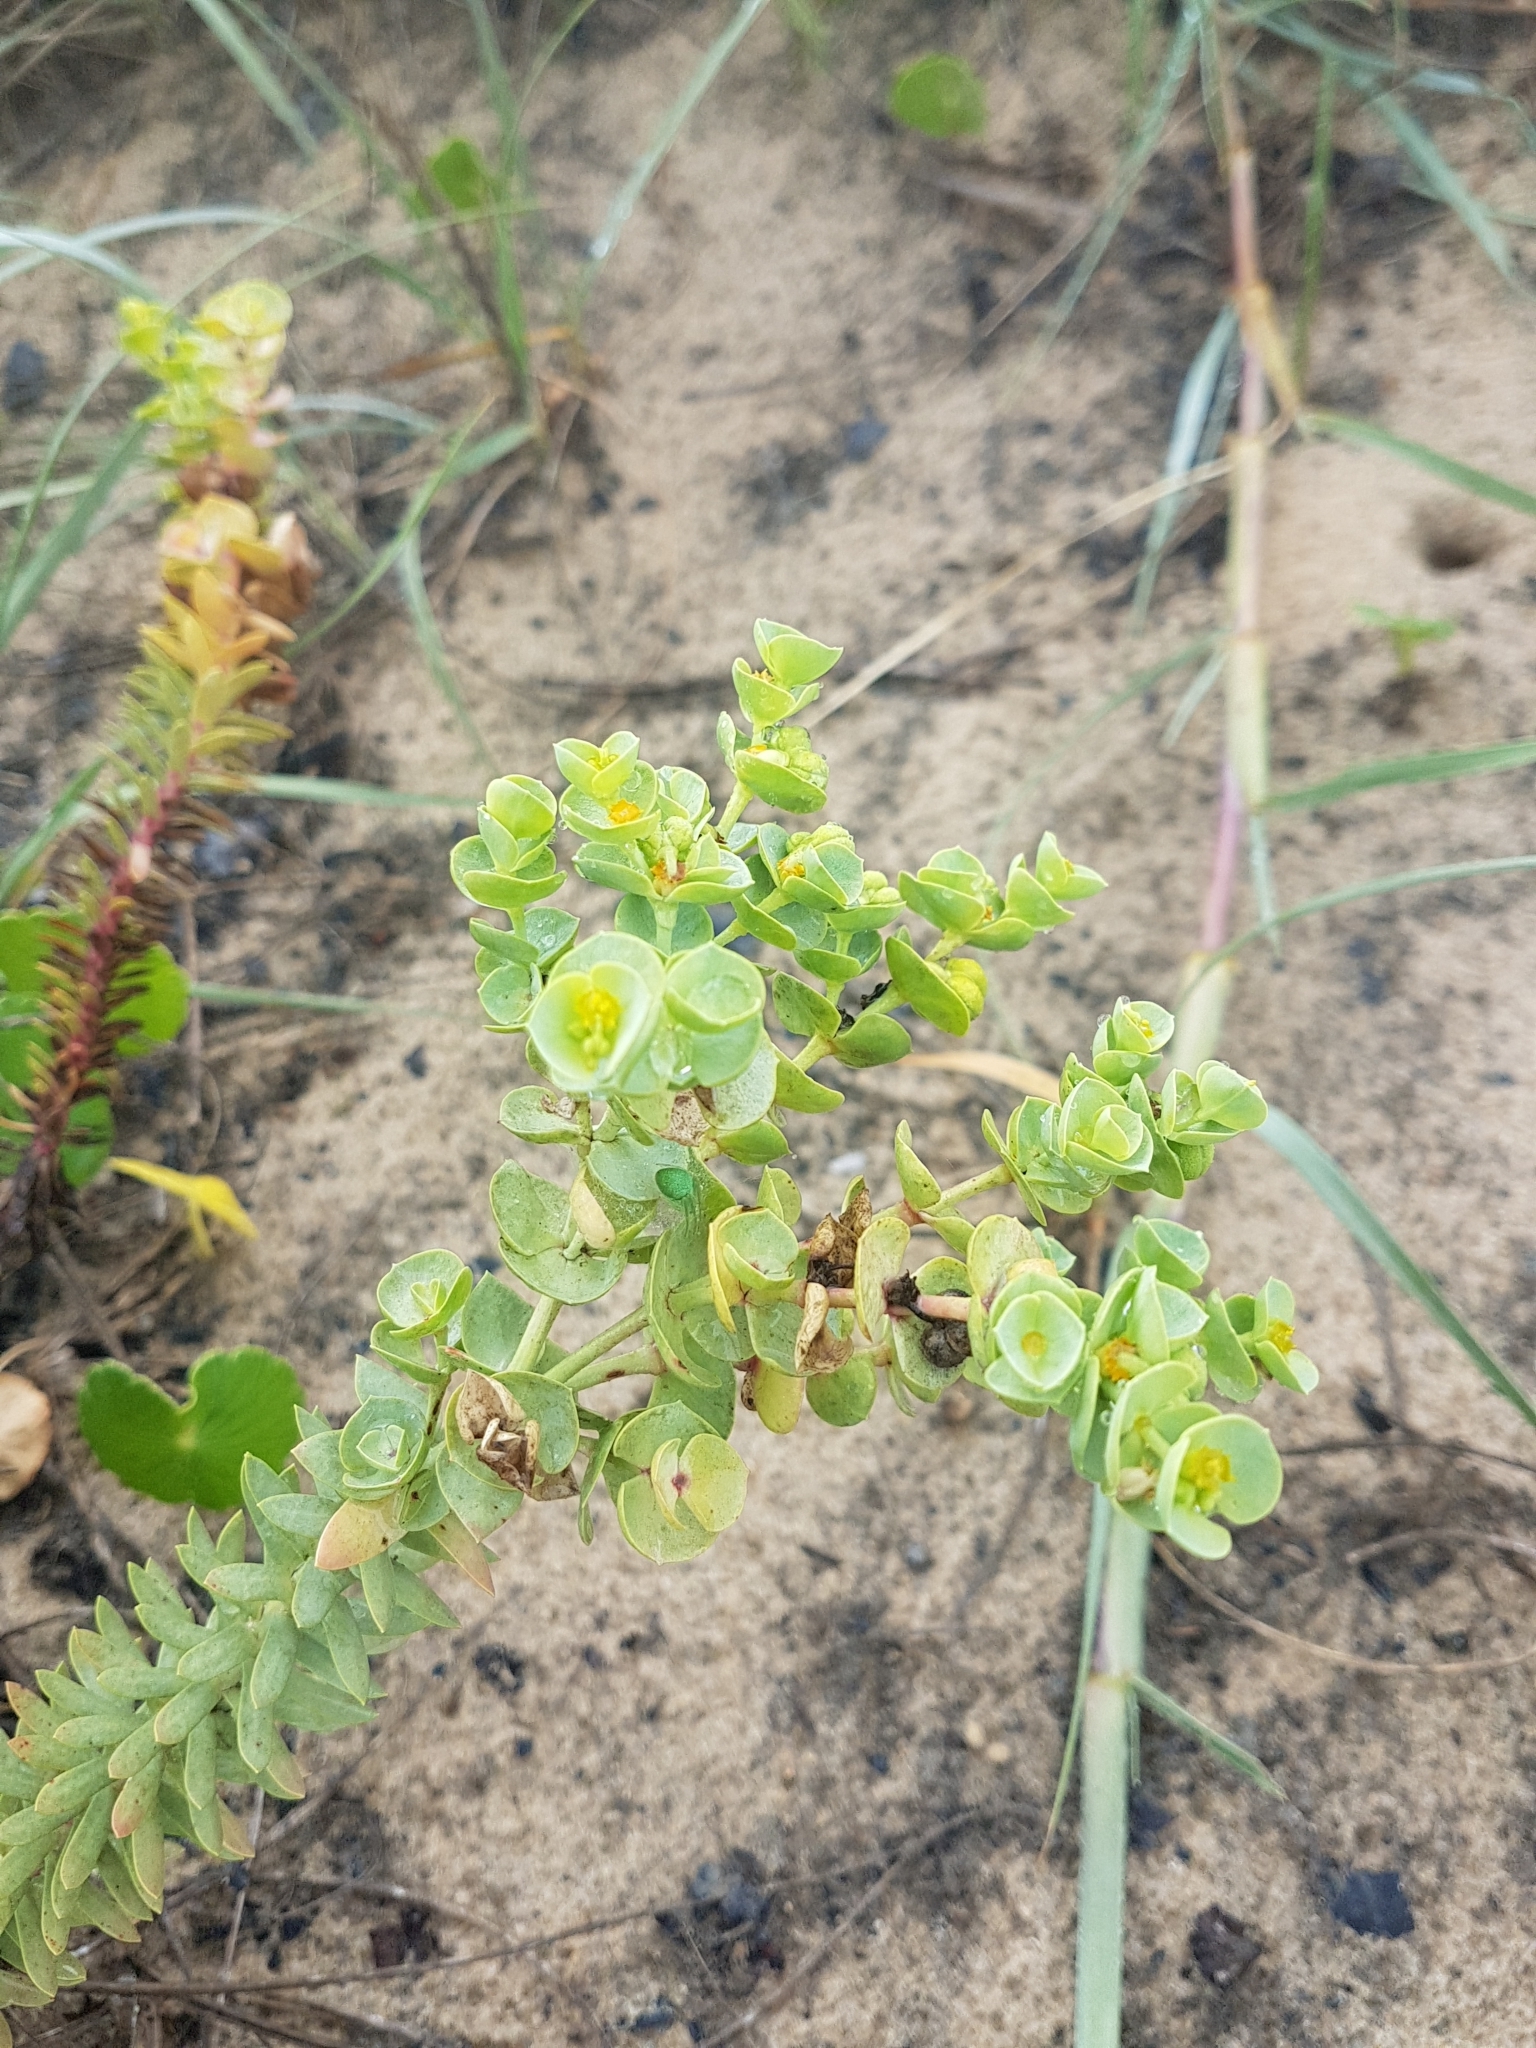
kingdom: Plantae
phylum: Tracheophyta
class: Magnoliopsida
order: Malpighiales
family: Euphorbiaceae
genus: Euphorbia
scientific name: Euphorbia paralias
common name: Sea spurge
